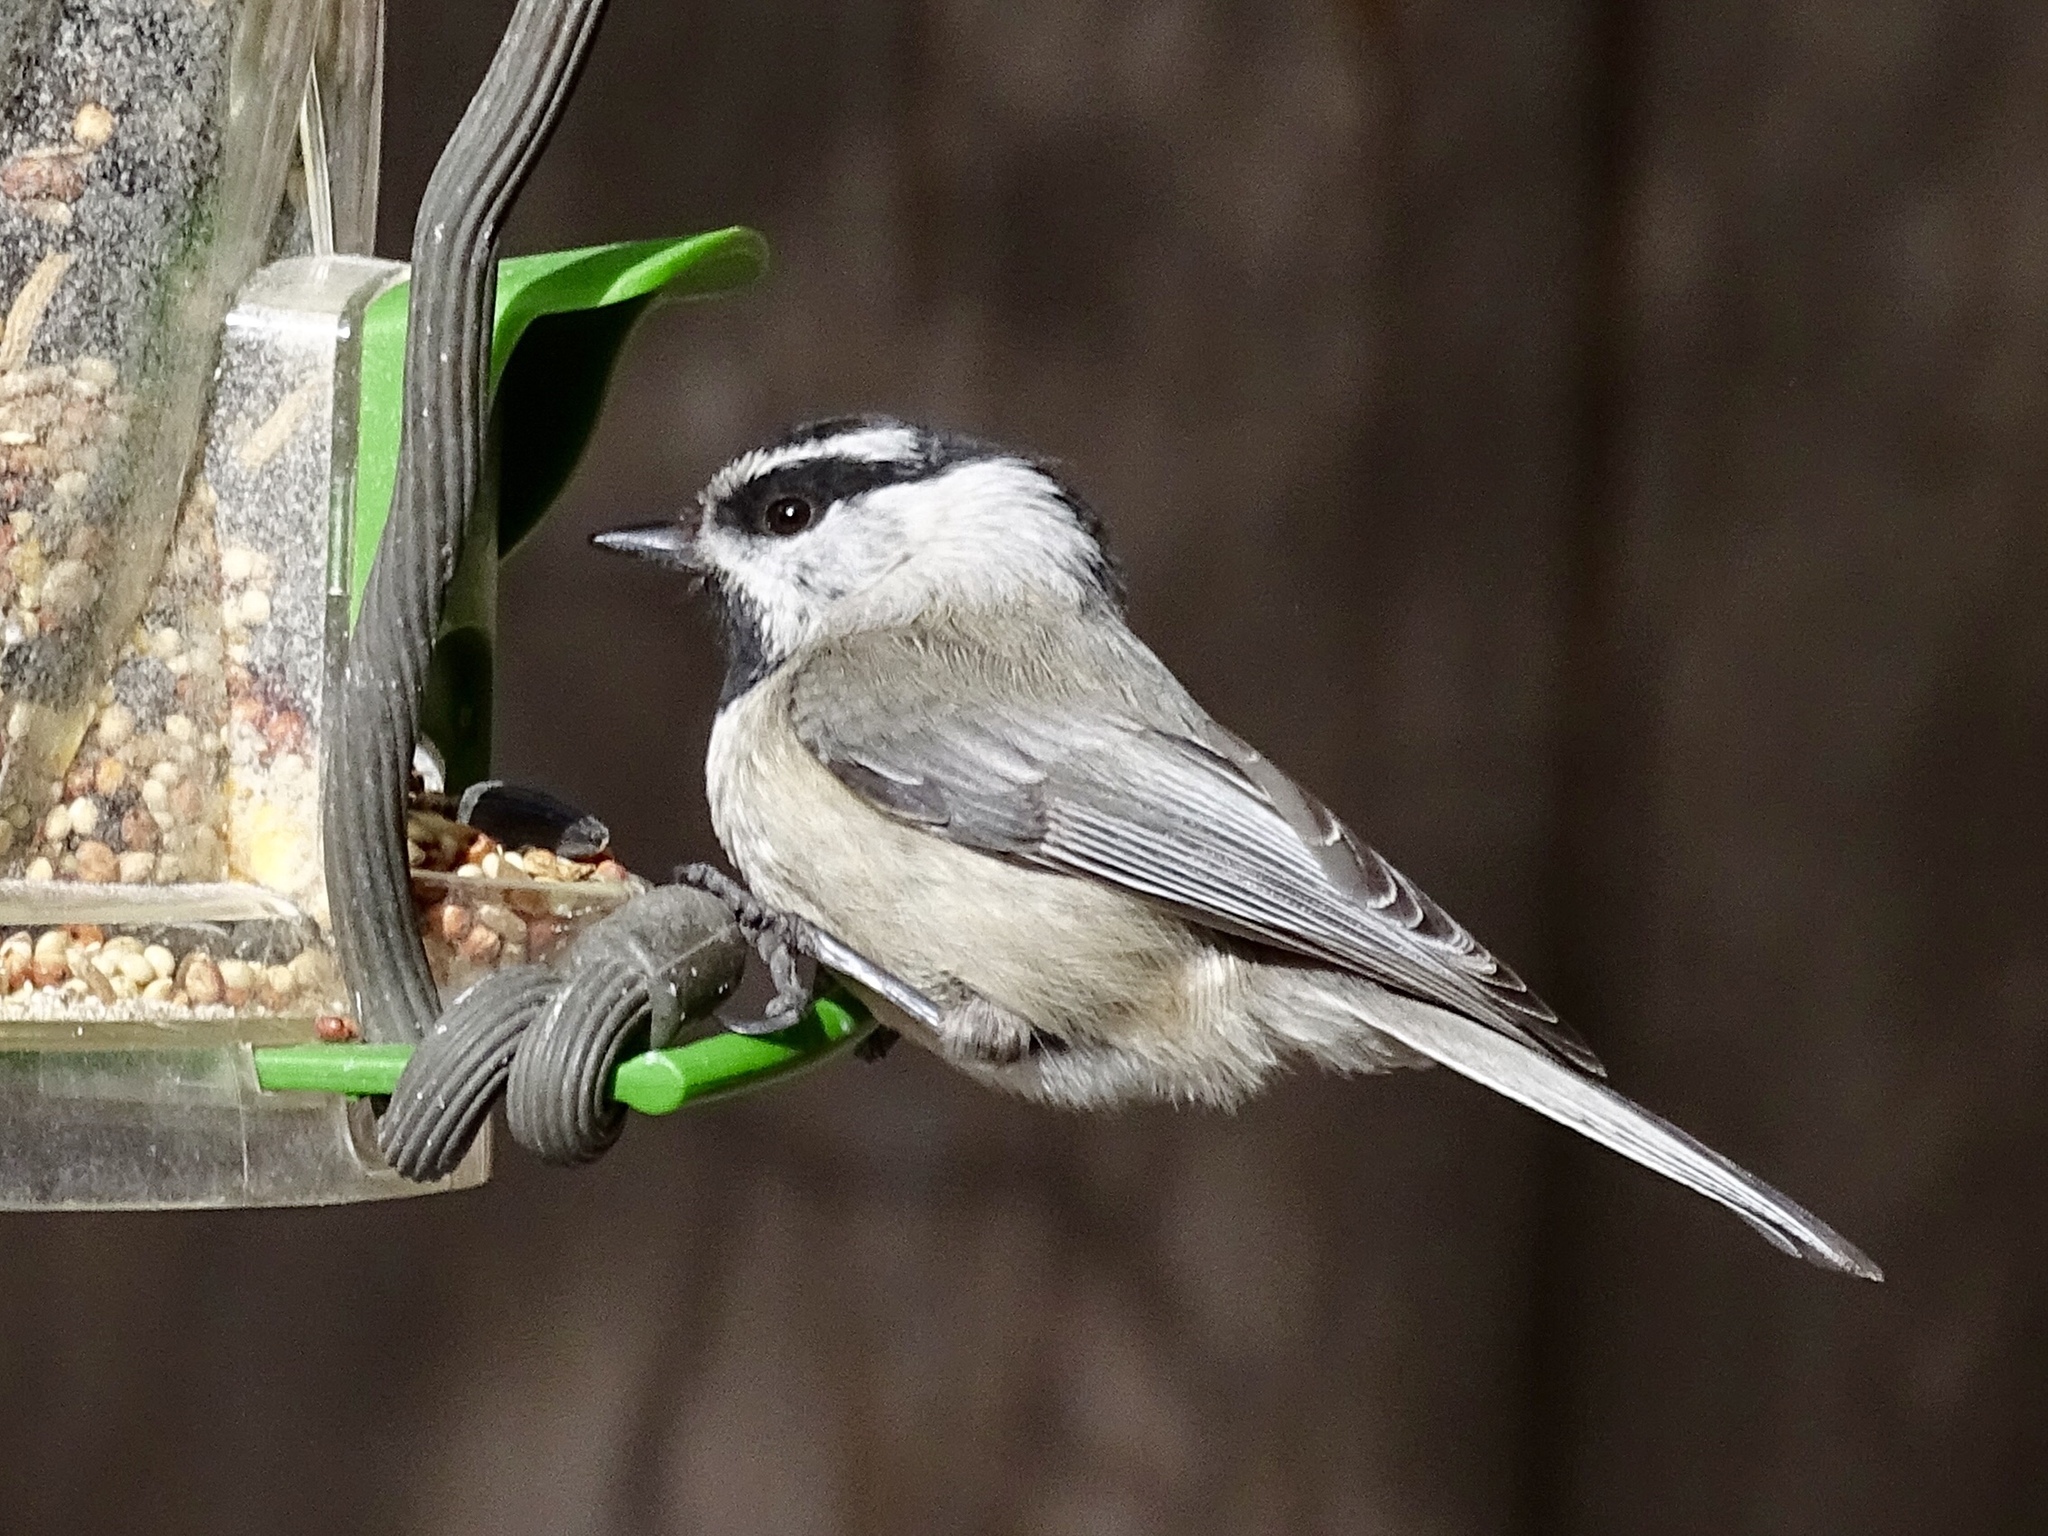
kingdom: Animalia
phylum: Chordata
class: Aves
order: Passeriformes
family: Paridae
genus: Poecile
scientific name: Poecile gambeli
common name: Mountain chickadee
